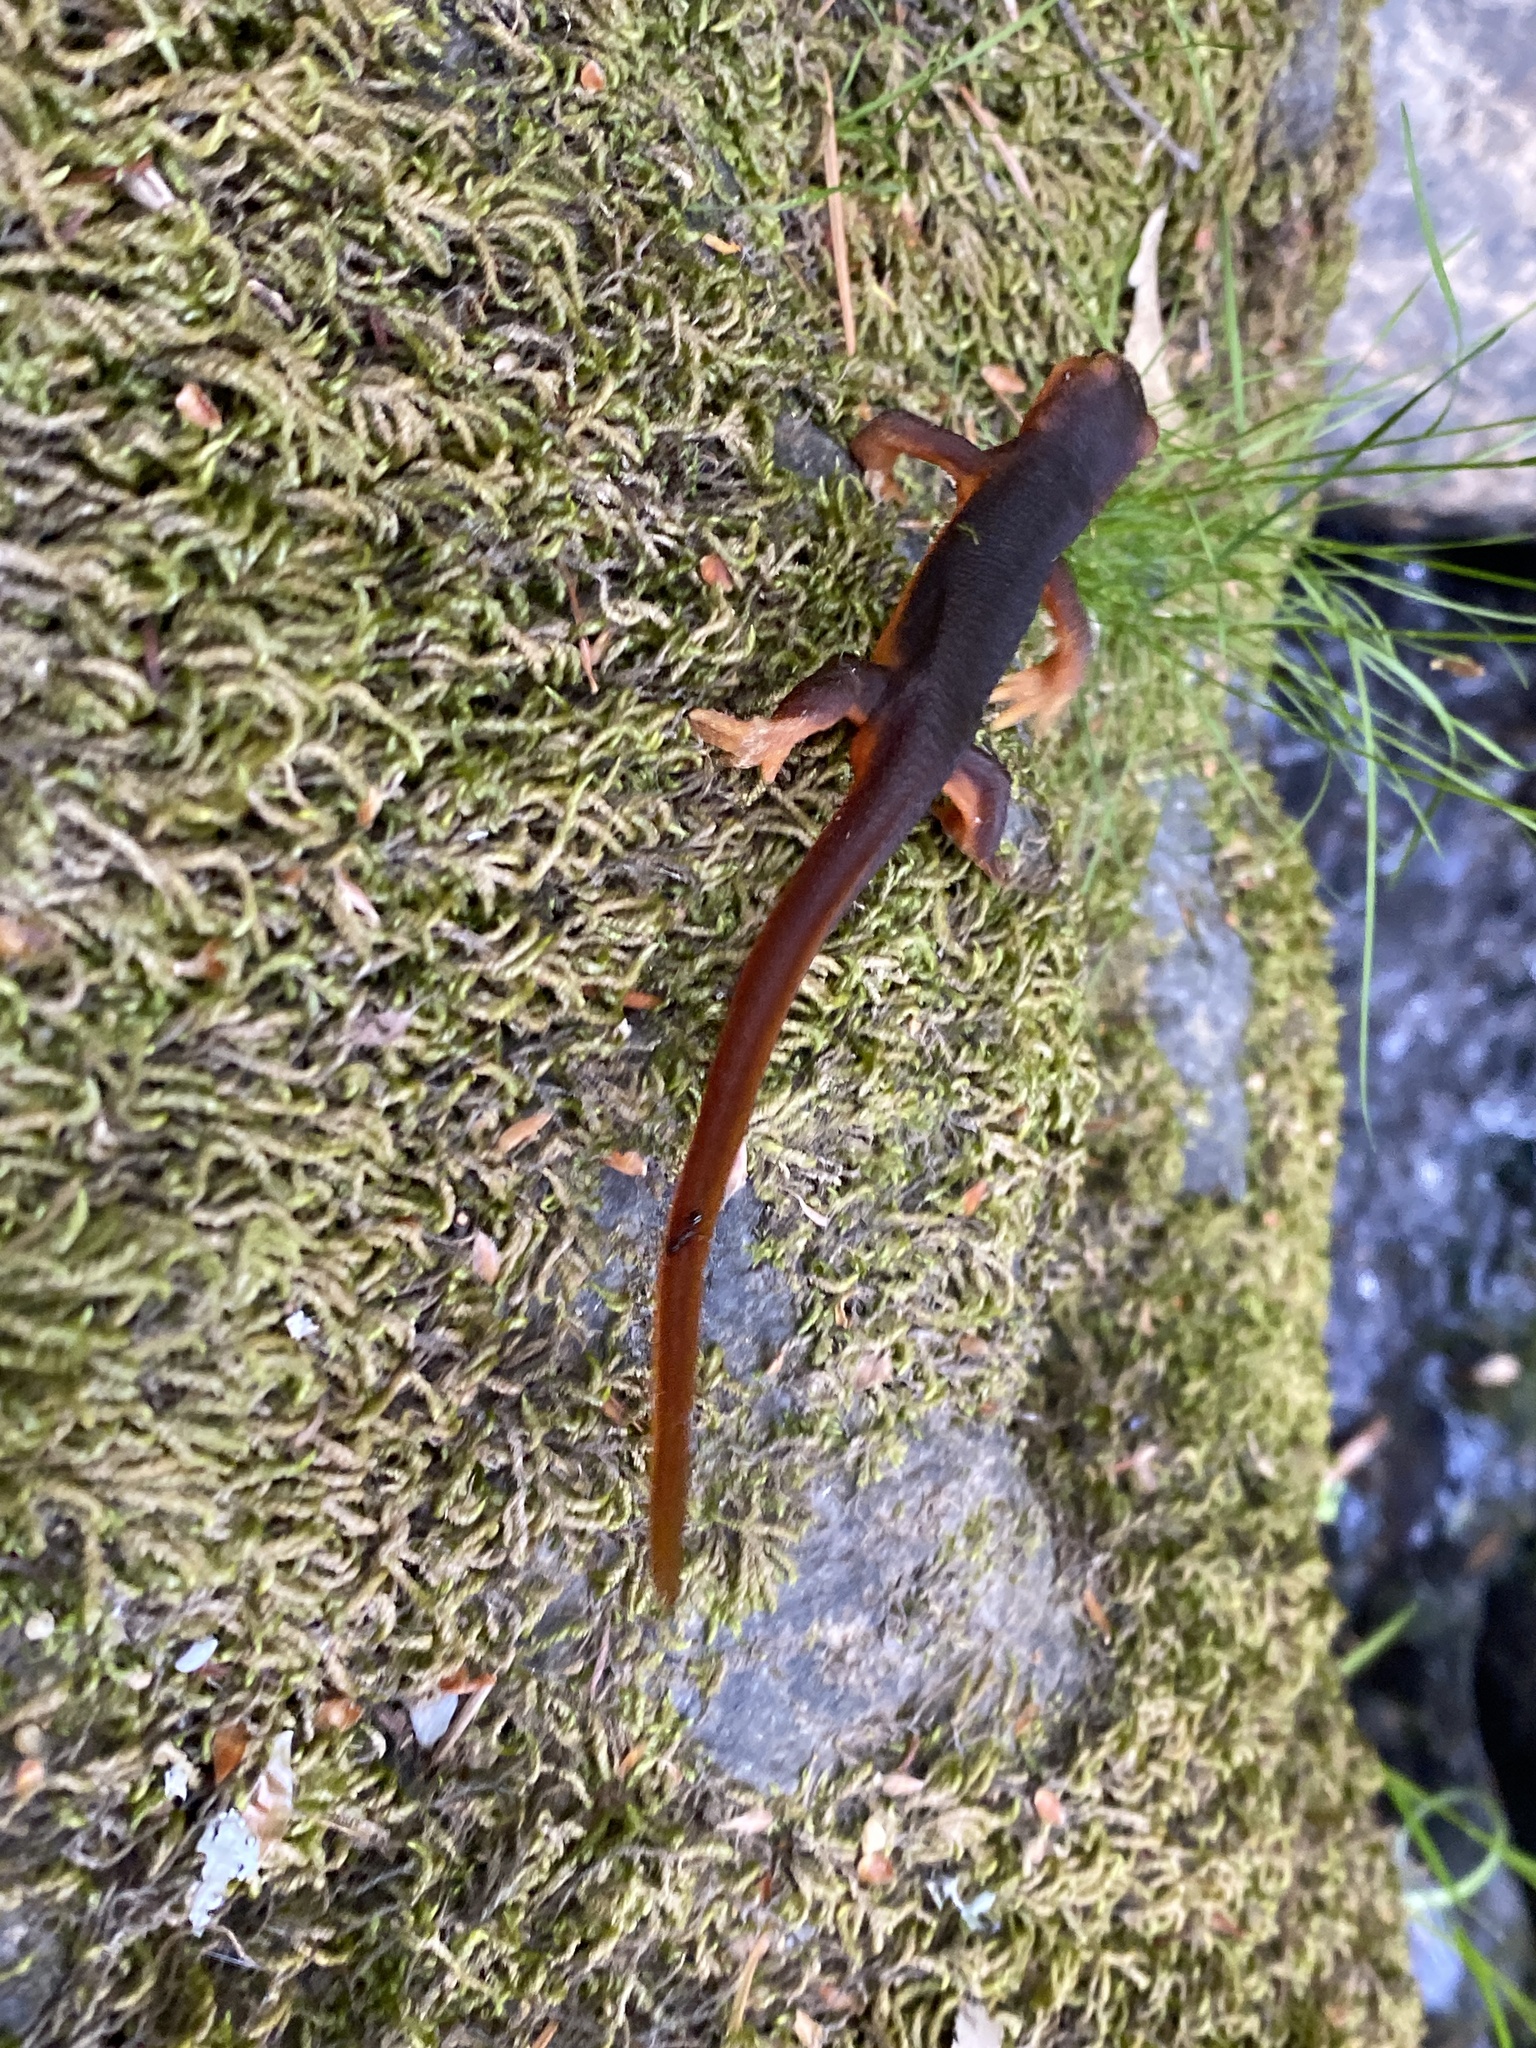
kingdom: Animalia
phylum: Chordata
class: Amphibia
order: Caudata
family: Salamandridae
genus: Taricha
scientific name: Taricha sierrae
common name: Sierra newt
